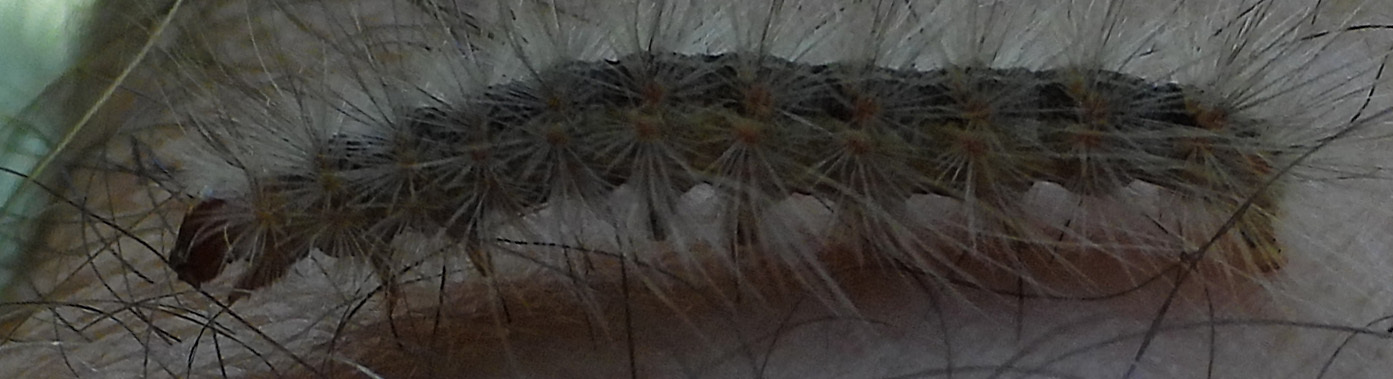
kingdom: Animalia
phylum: Arthropoda
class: Insecta
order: Lepidoptera
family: Erebidae
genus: Hyphantria
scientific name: Hyphantria cunea
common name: American white moth
